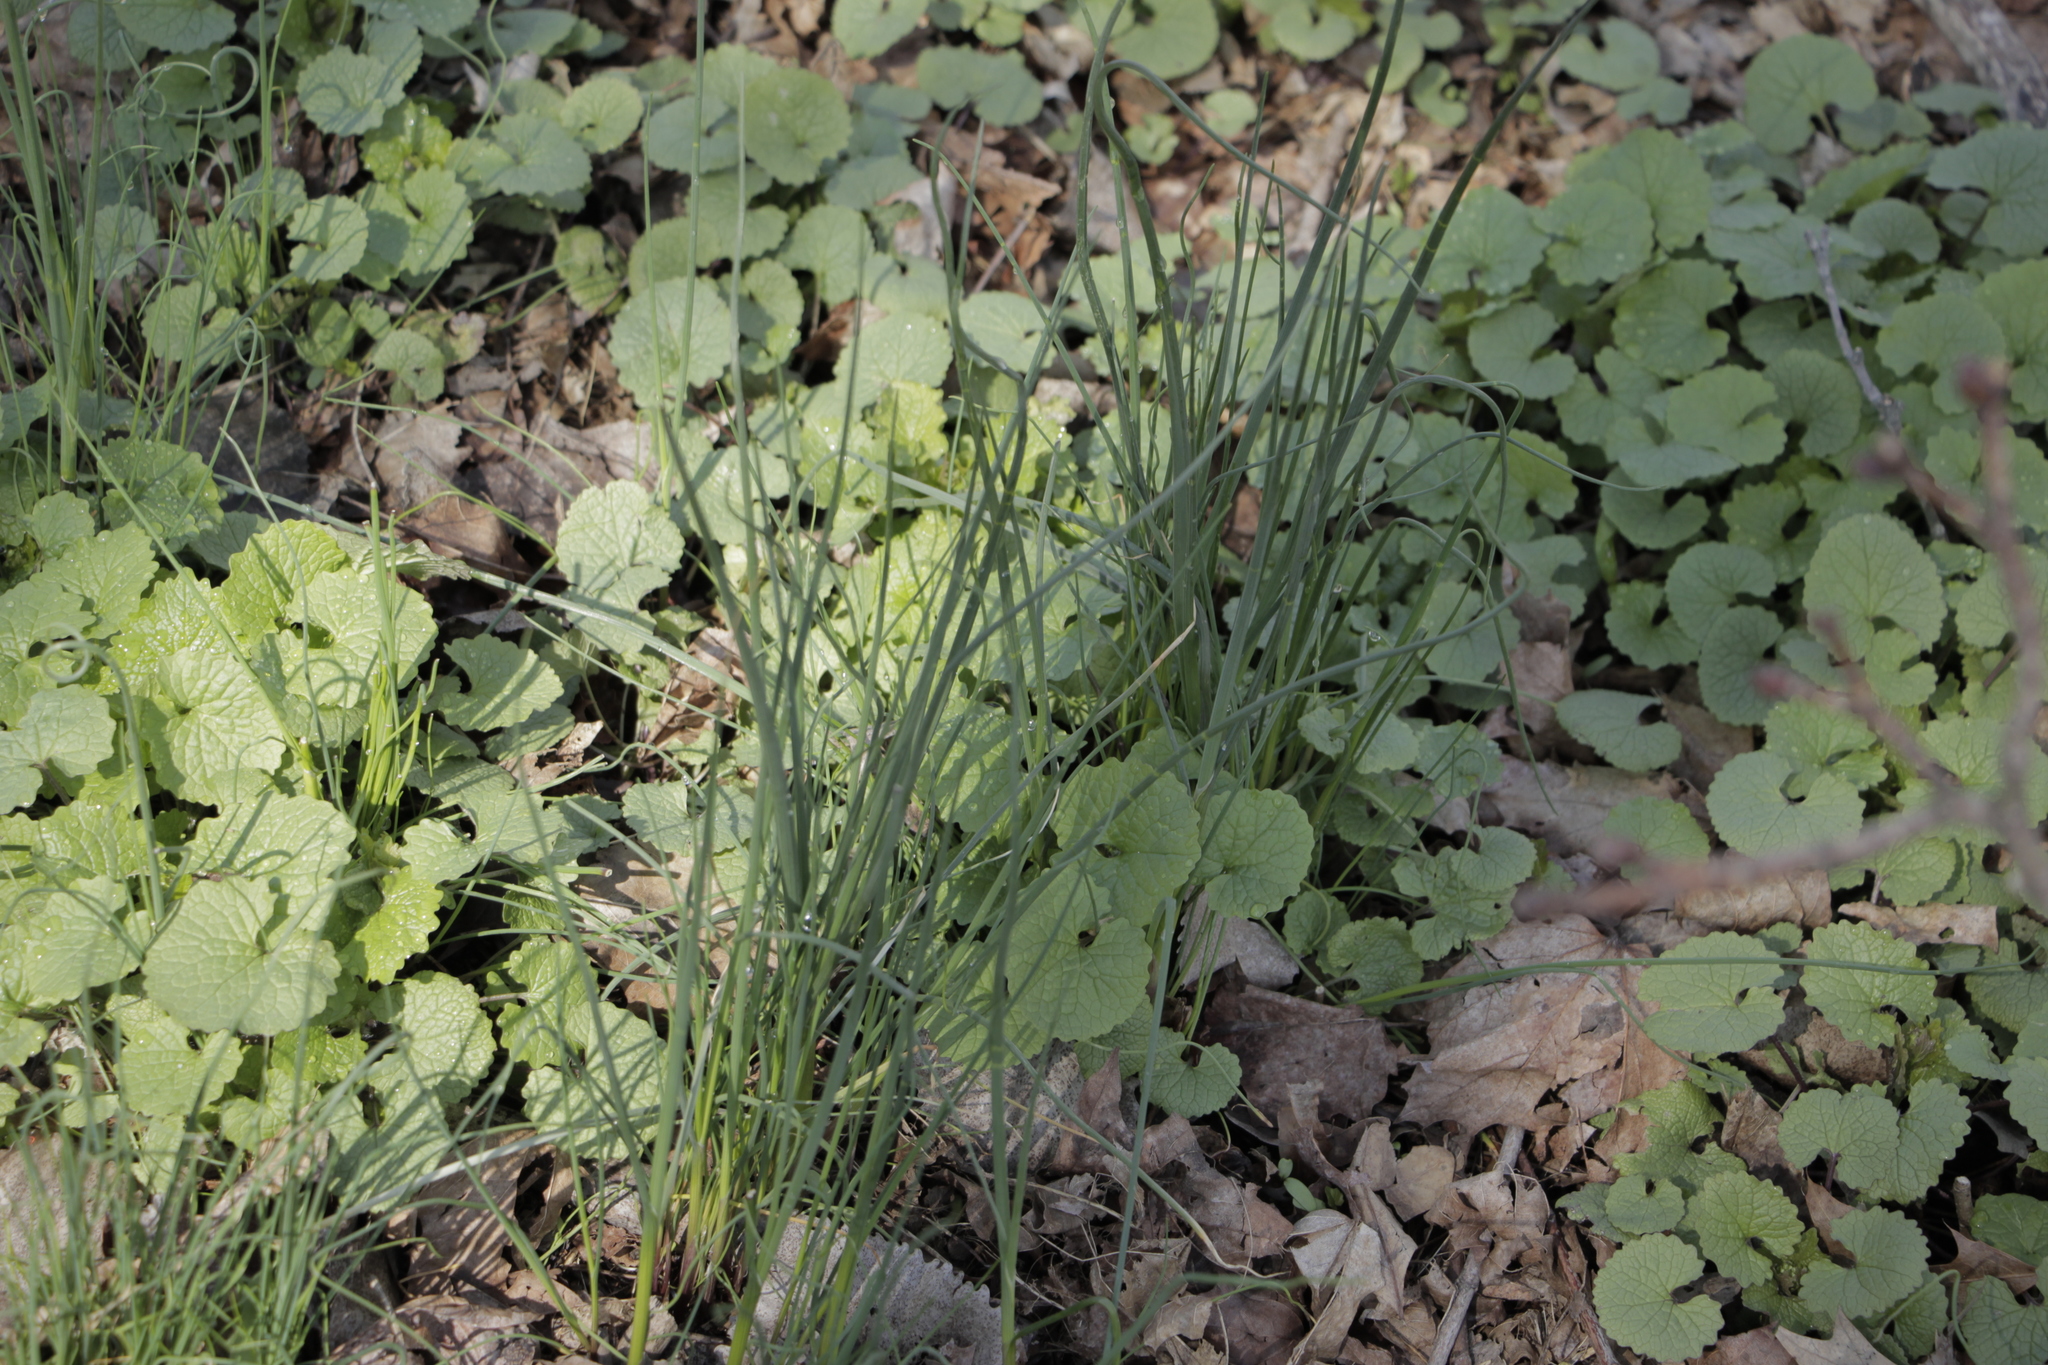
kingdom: Plantae
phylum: Tracheophyta
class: Liliopsida
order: Asparagales
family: Amaryllidaceae
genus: Allium
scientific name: Allium vineale
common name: Crow garlic
